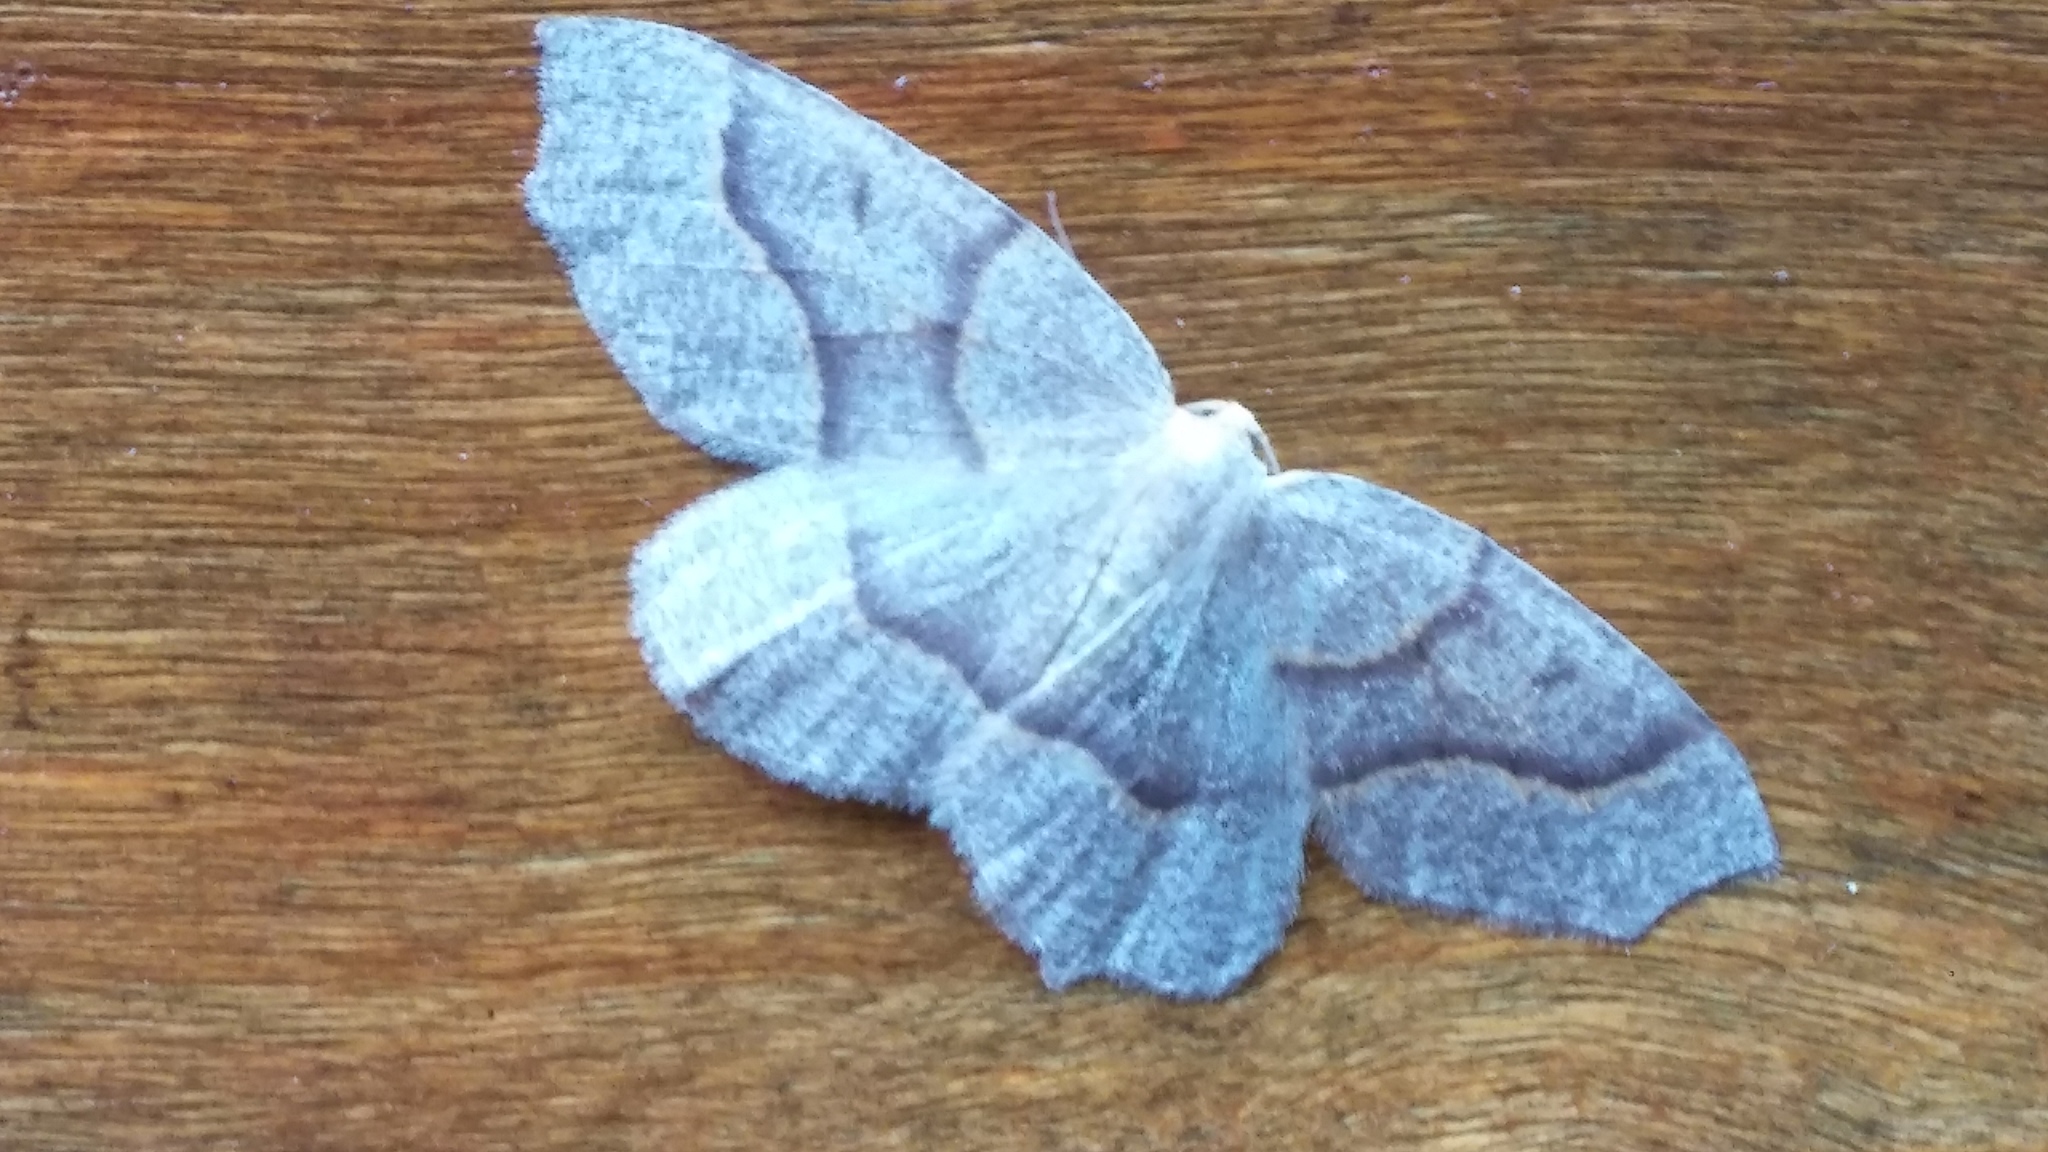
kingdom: Animalia
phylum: Arthropoda
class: Insecta
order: Lepidoptera
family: Geometridae
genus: Lambdina
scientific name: Lambdina fiscellaria
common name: Hemlock looper
